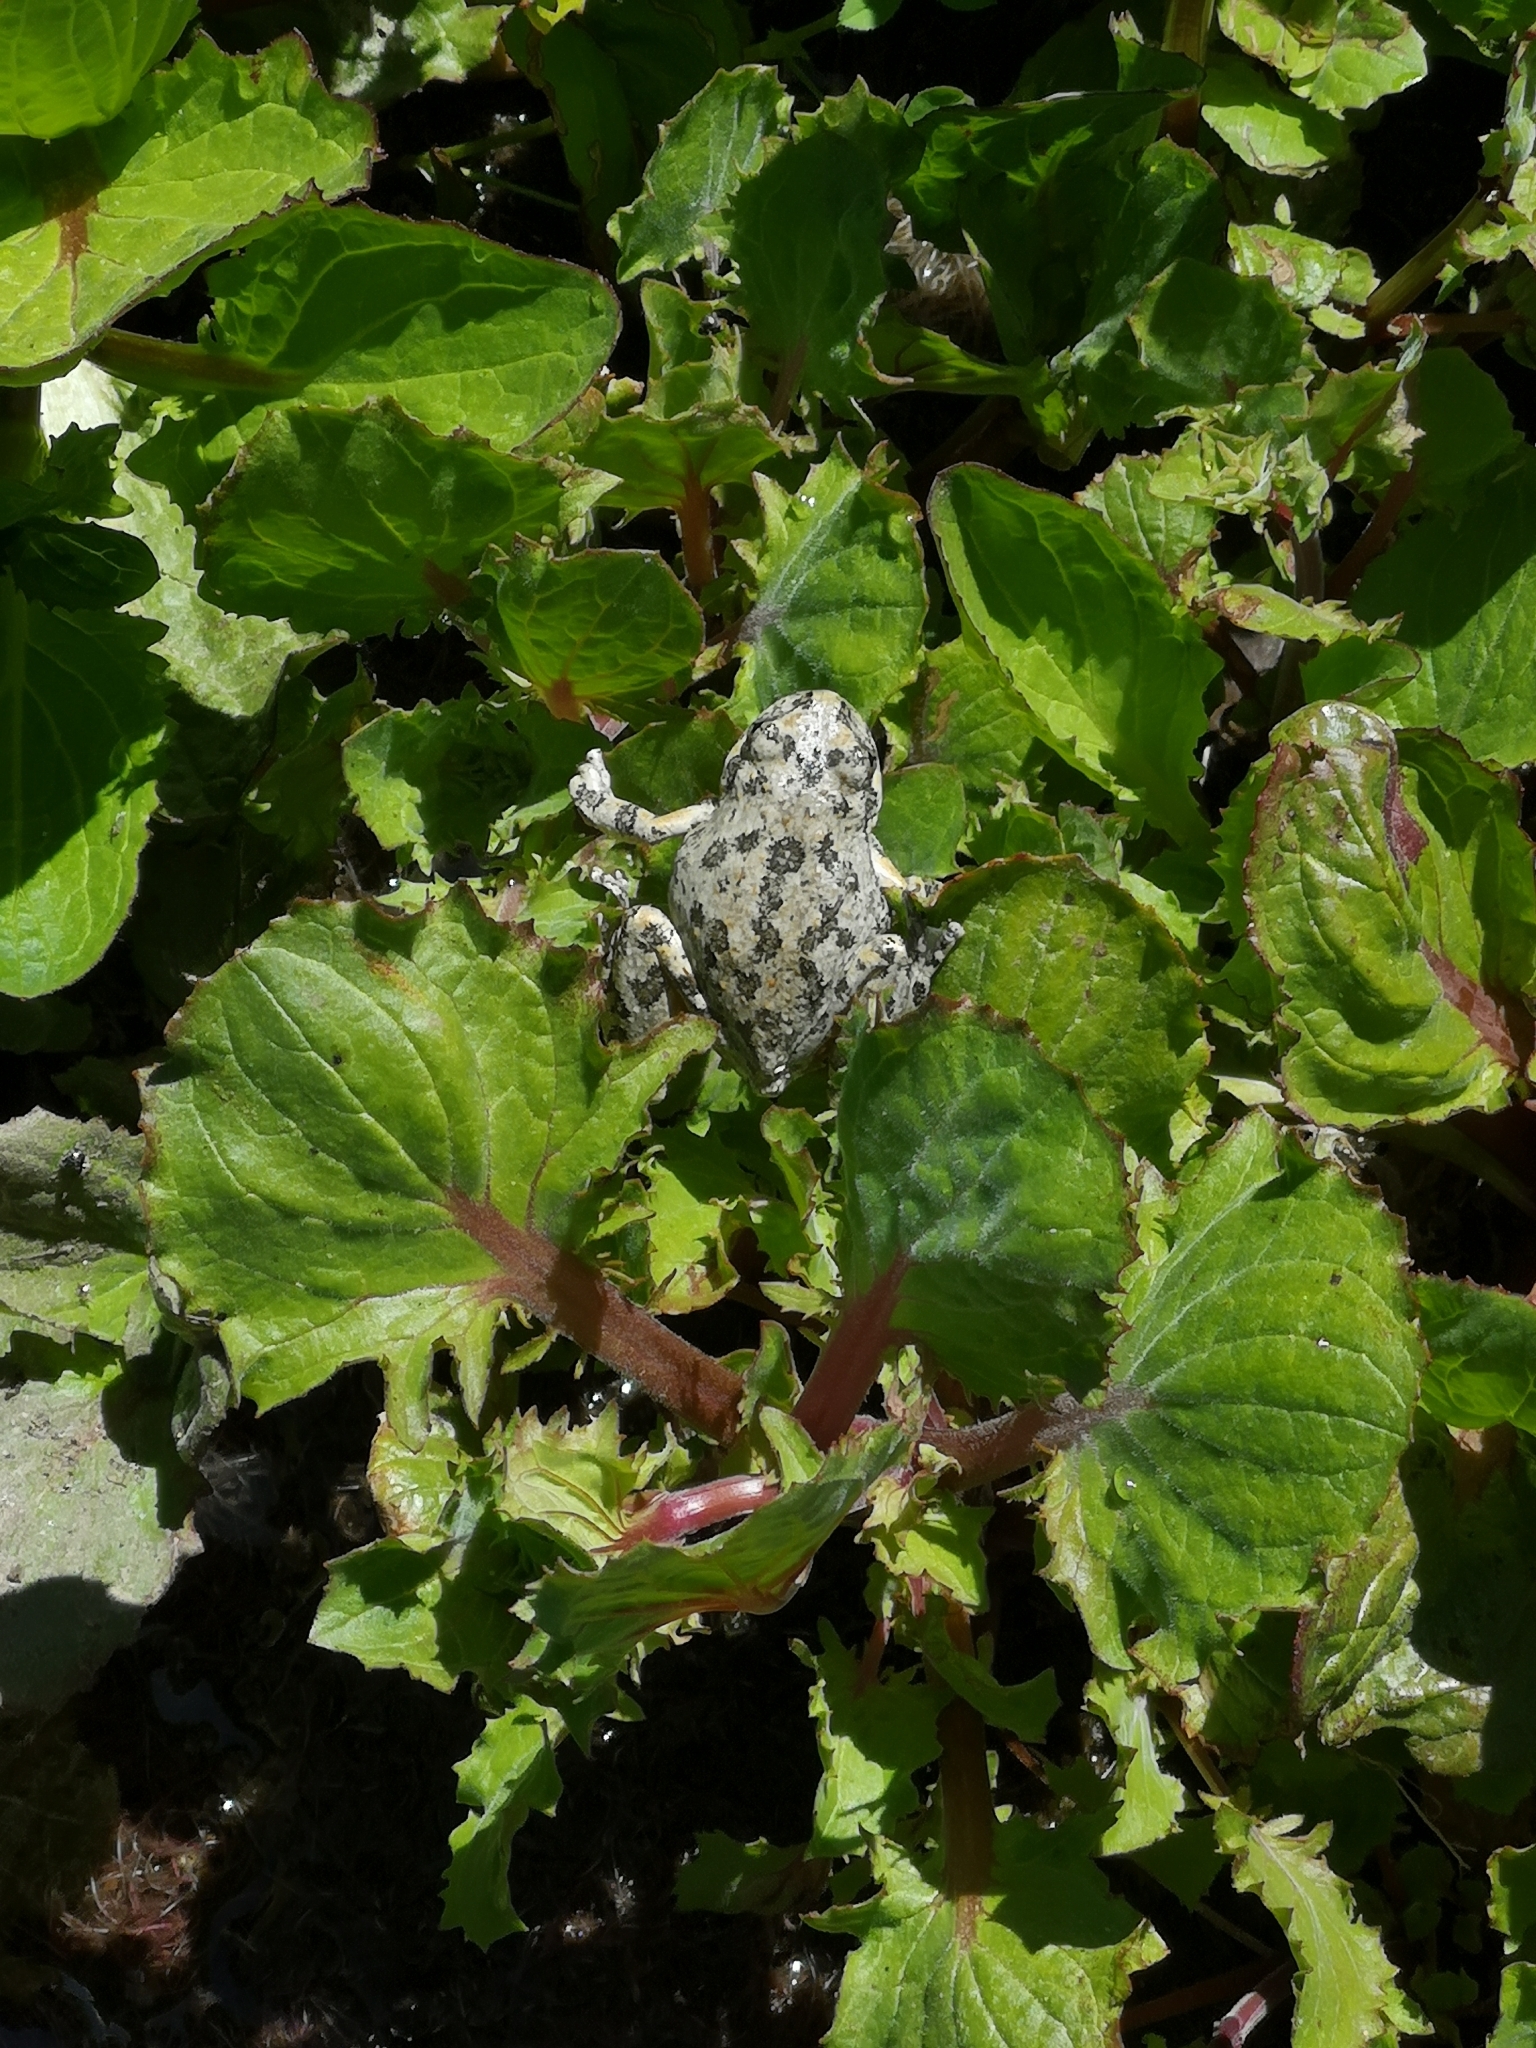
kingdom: Animalia
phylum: Chordata
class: Amphibia
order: Anura
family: Hylidae
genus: Pseudacris
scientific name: Pseudacris cadaverina
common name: California chorus frog
